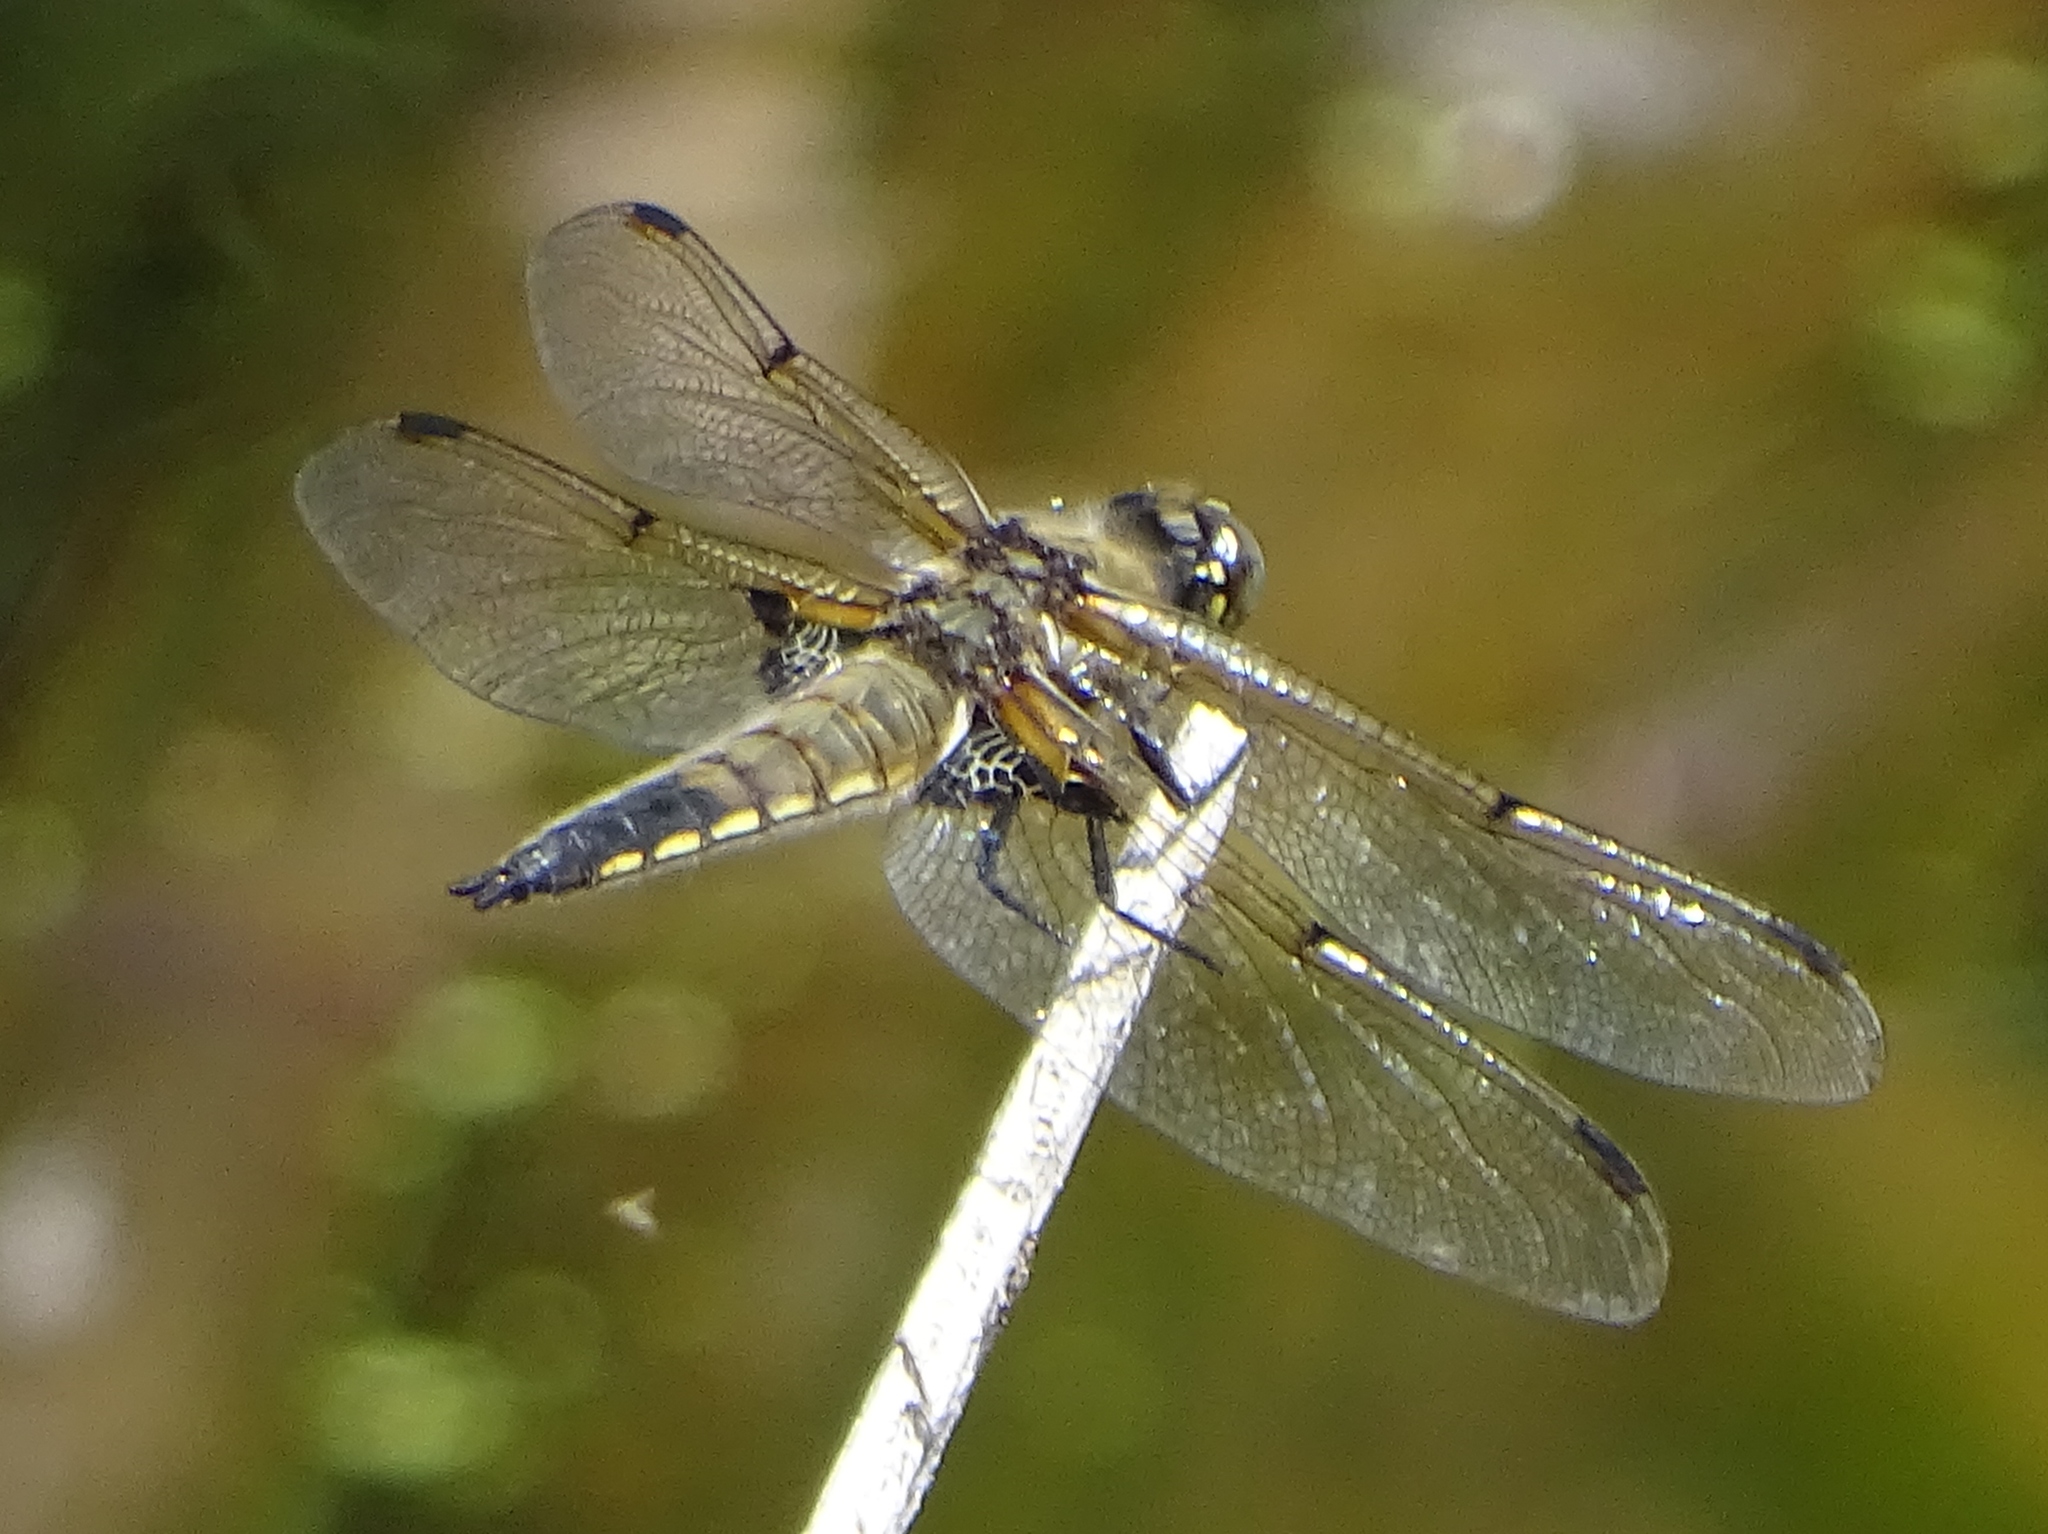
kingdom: Animalia
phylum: Arthropoda
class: Insecta
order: Odonata
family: Libellulidae
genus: Libellula
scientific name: Libellula quadrimaculata
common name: Four-spotted chaser
